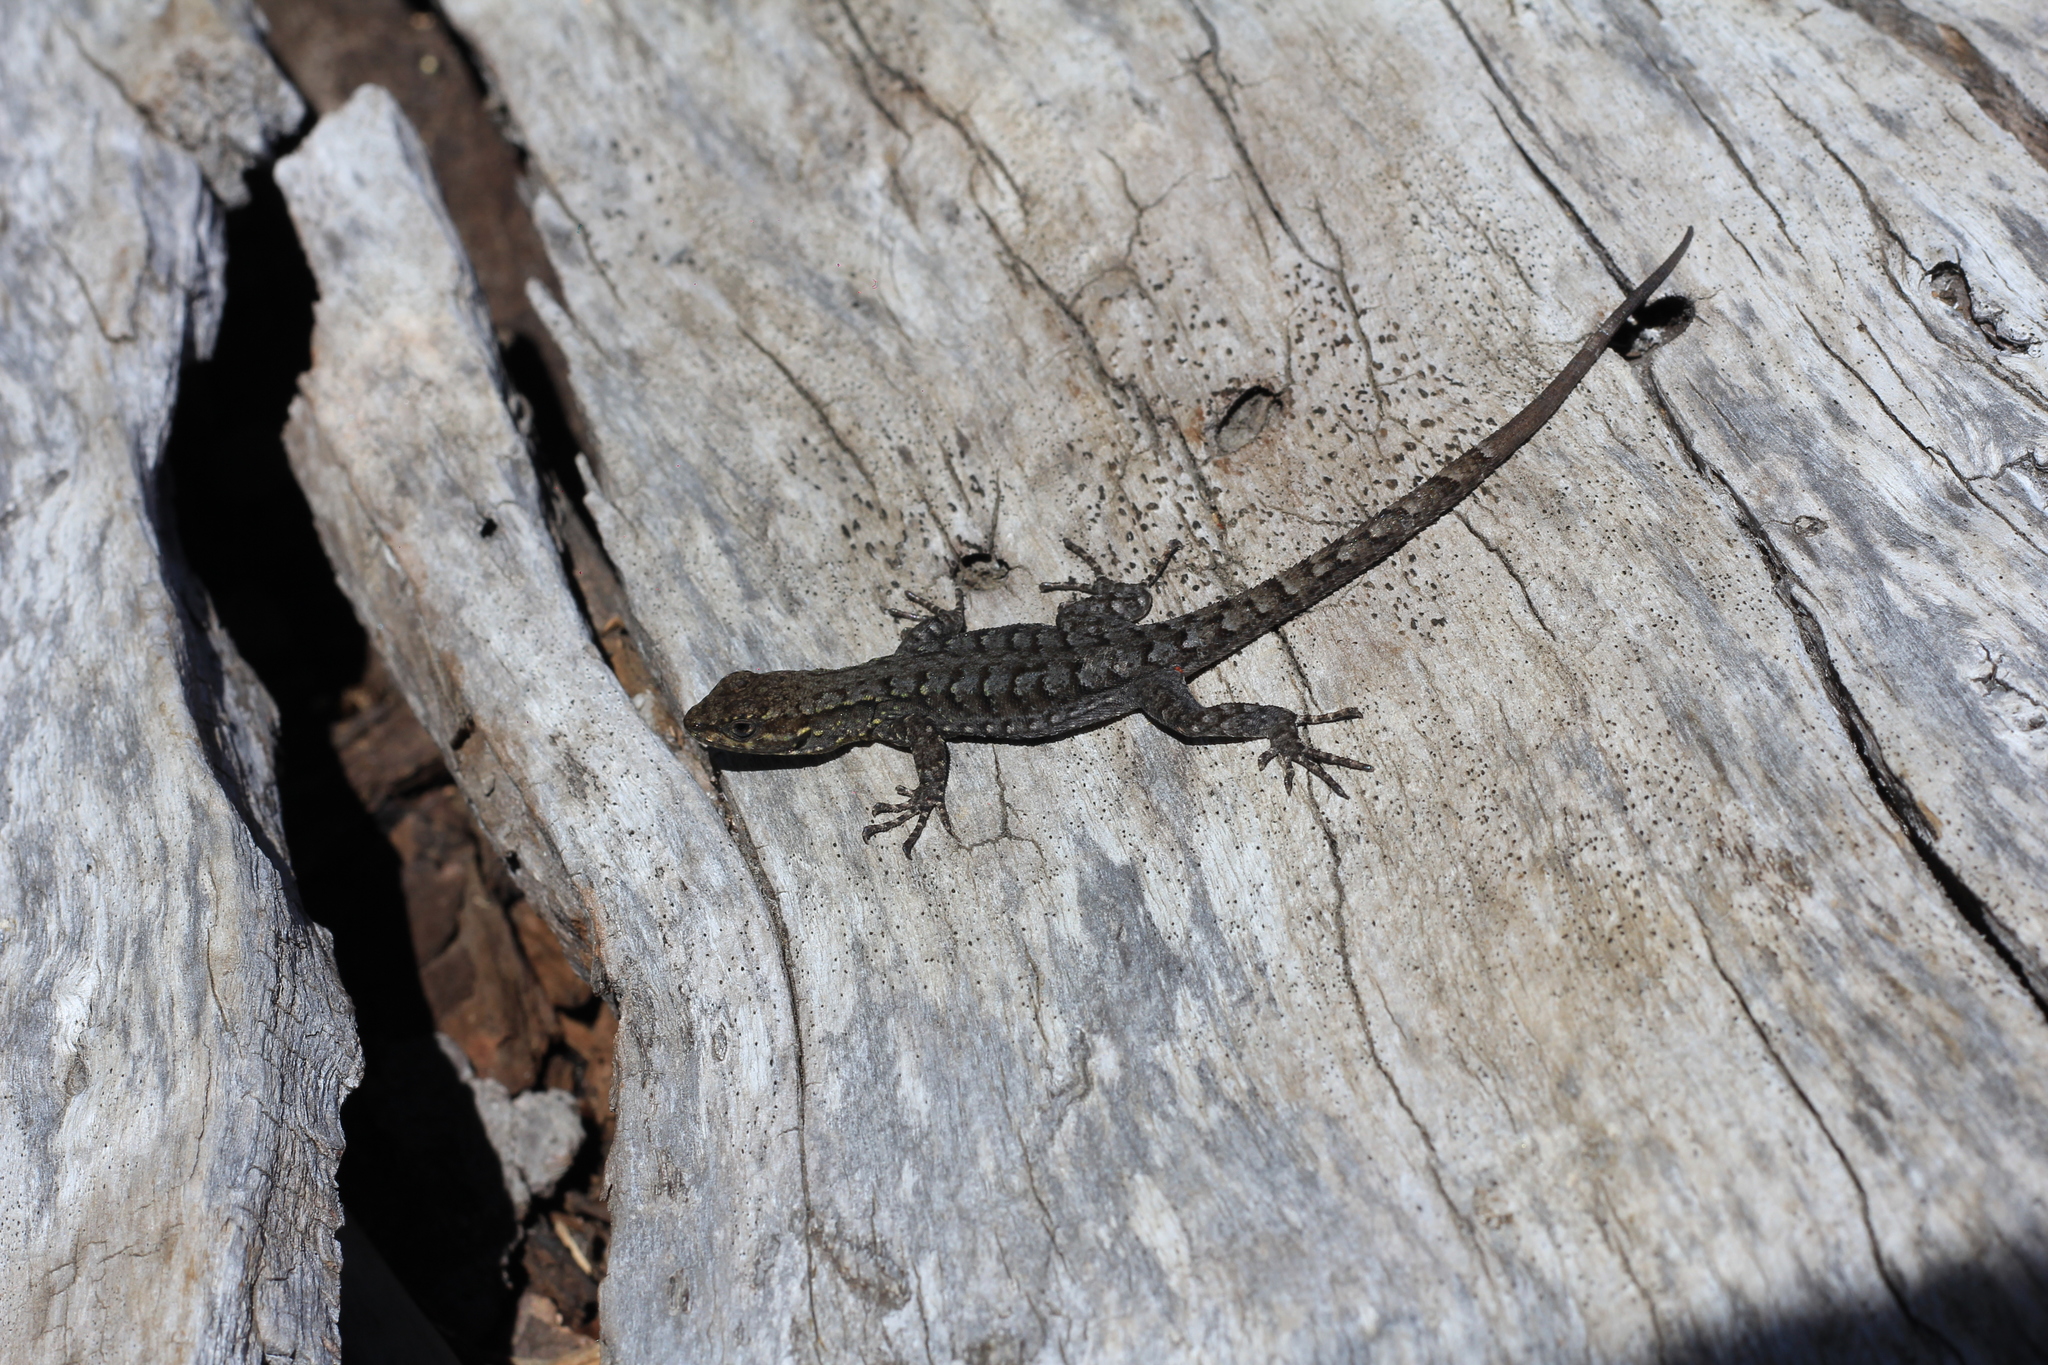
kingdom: Animalia
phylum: Chordata
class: Squamata
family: Liolaemidae
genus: Liolaemus
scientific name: Liolaemus tenuis
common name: Thin tree iguana
